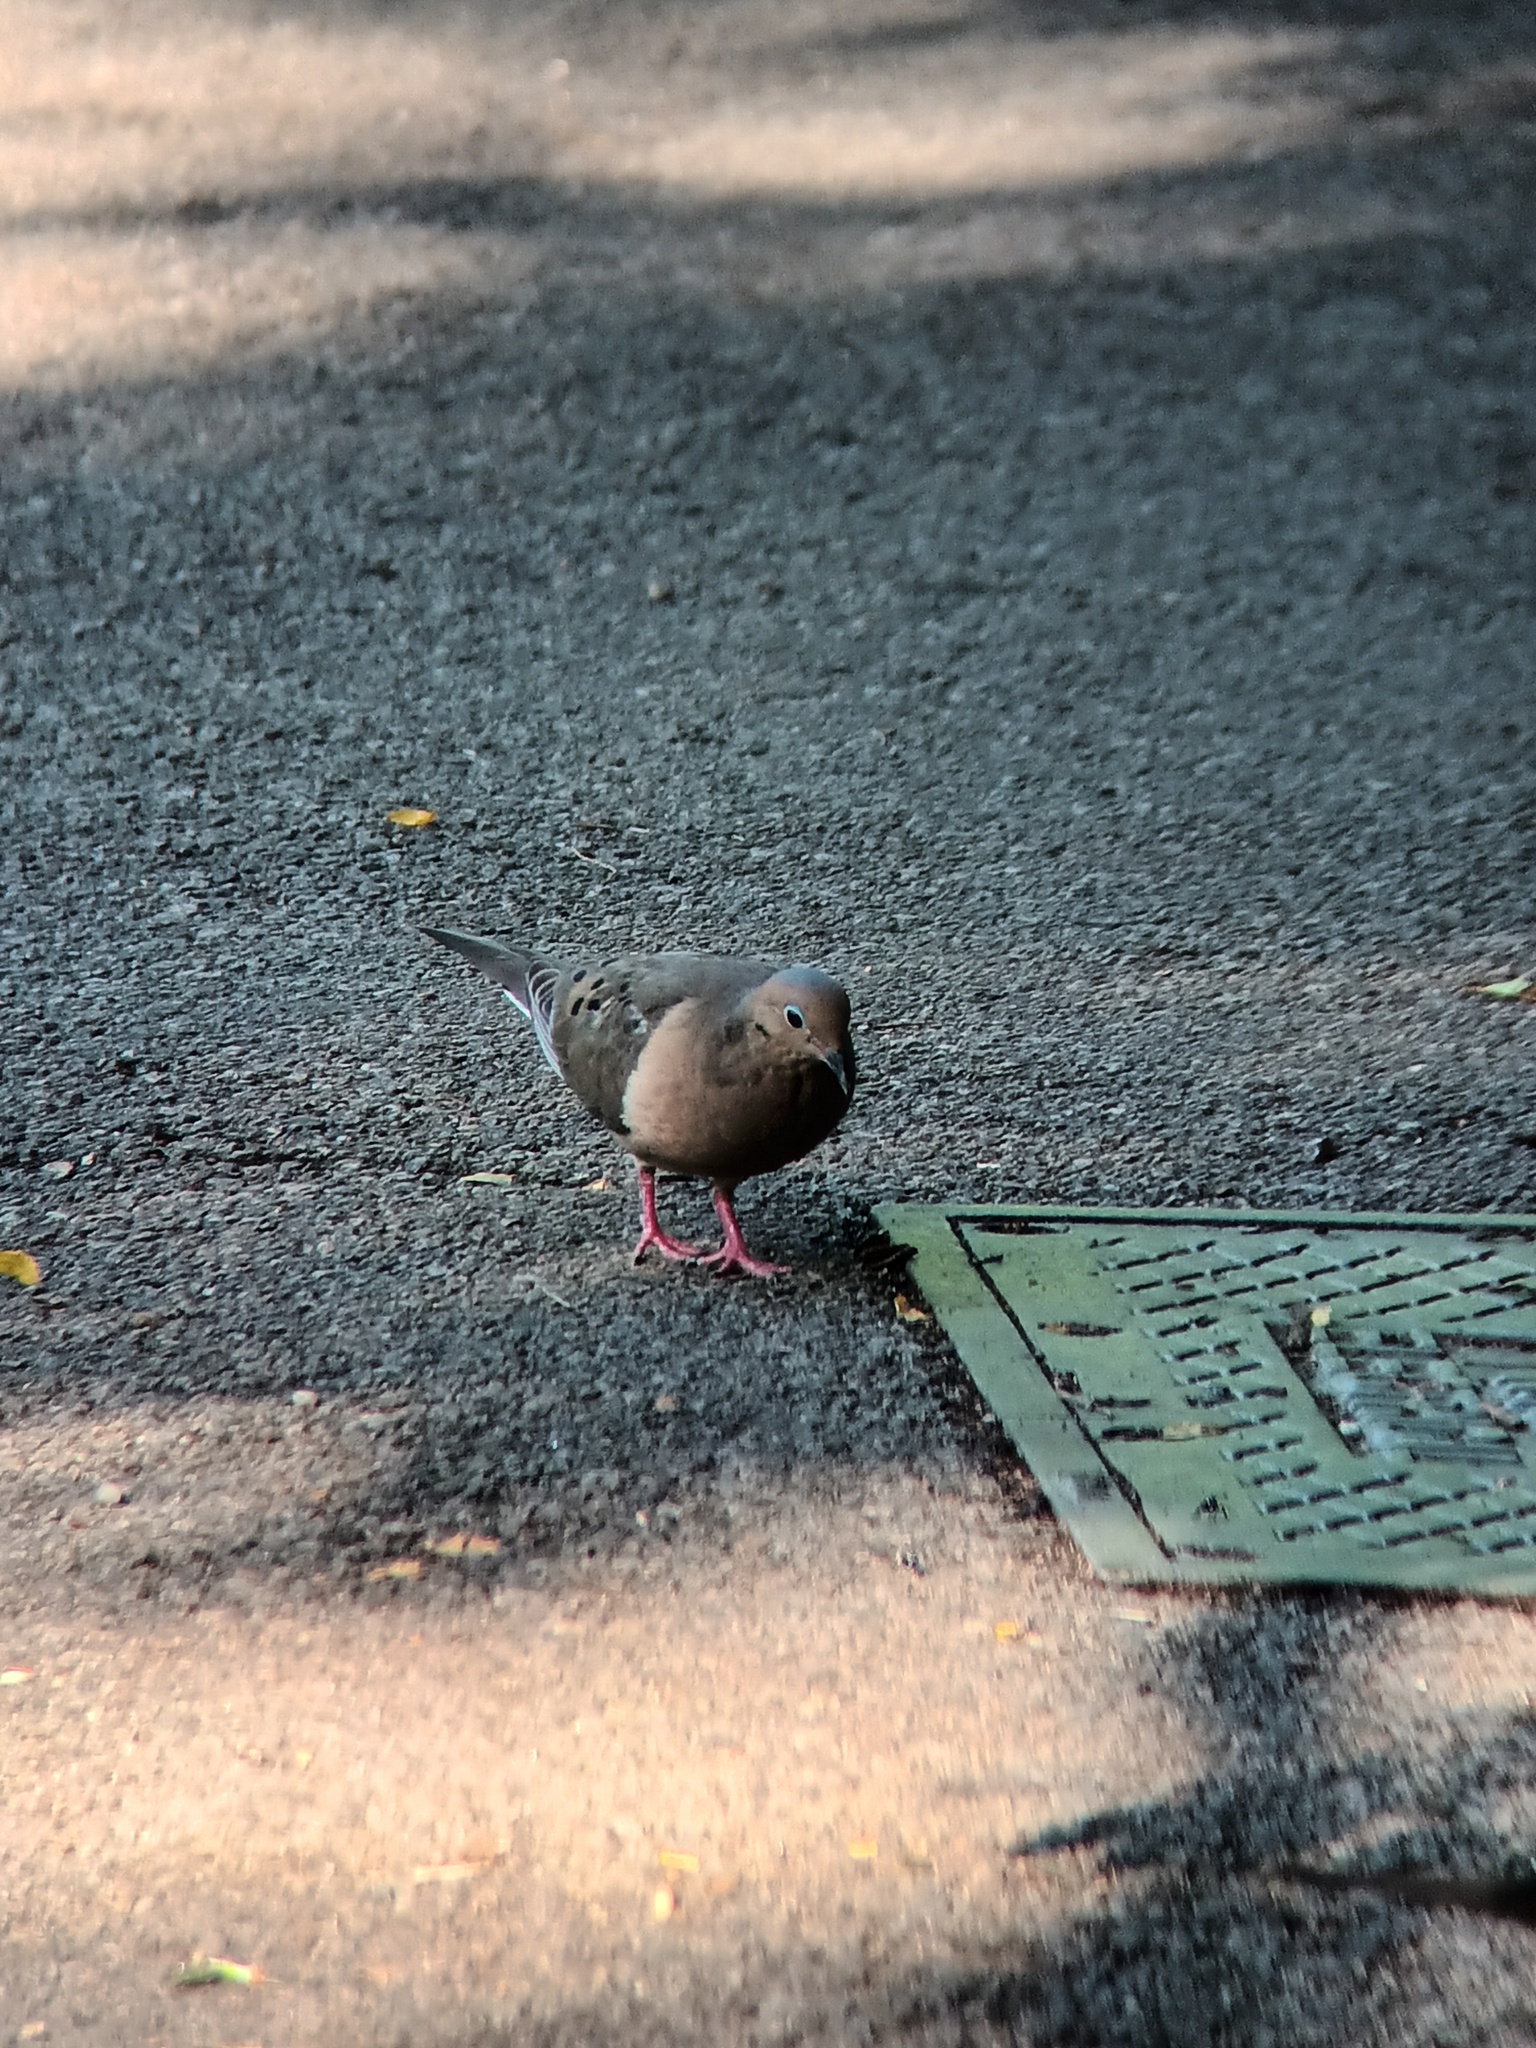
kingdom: Animalia
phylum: Chordata
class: Aves
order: Columbiformes
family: Columbidae
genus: Zenaida
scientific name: Zenaida macroura
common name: Mourning dove
